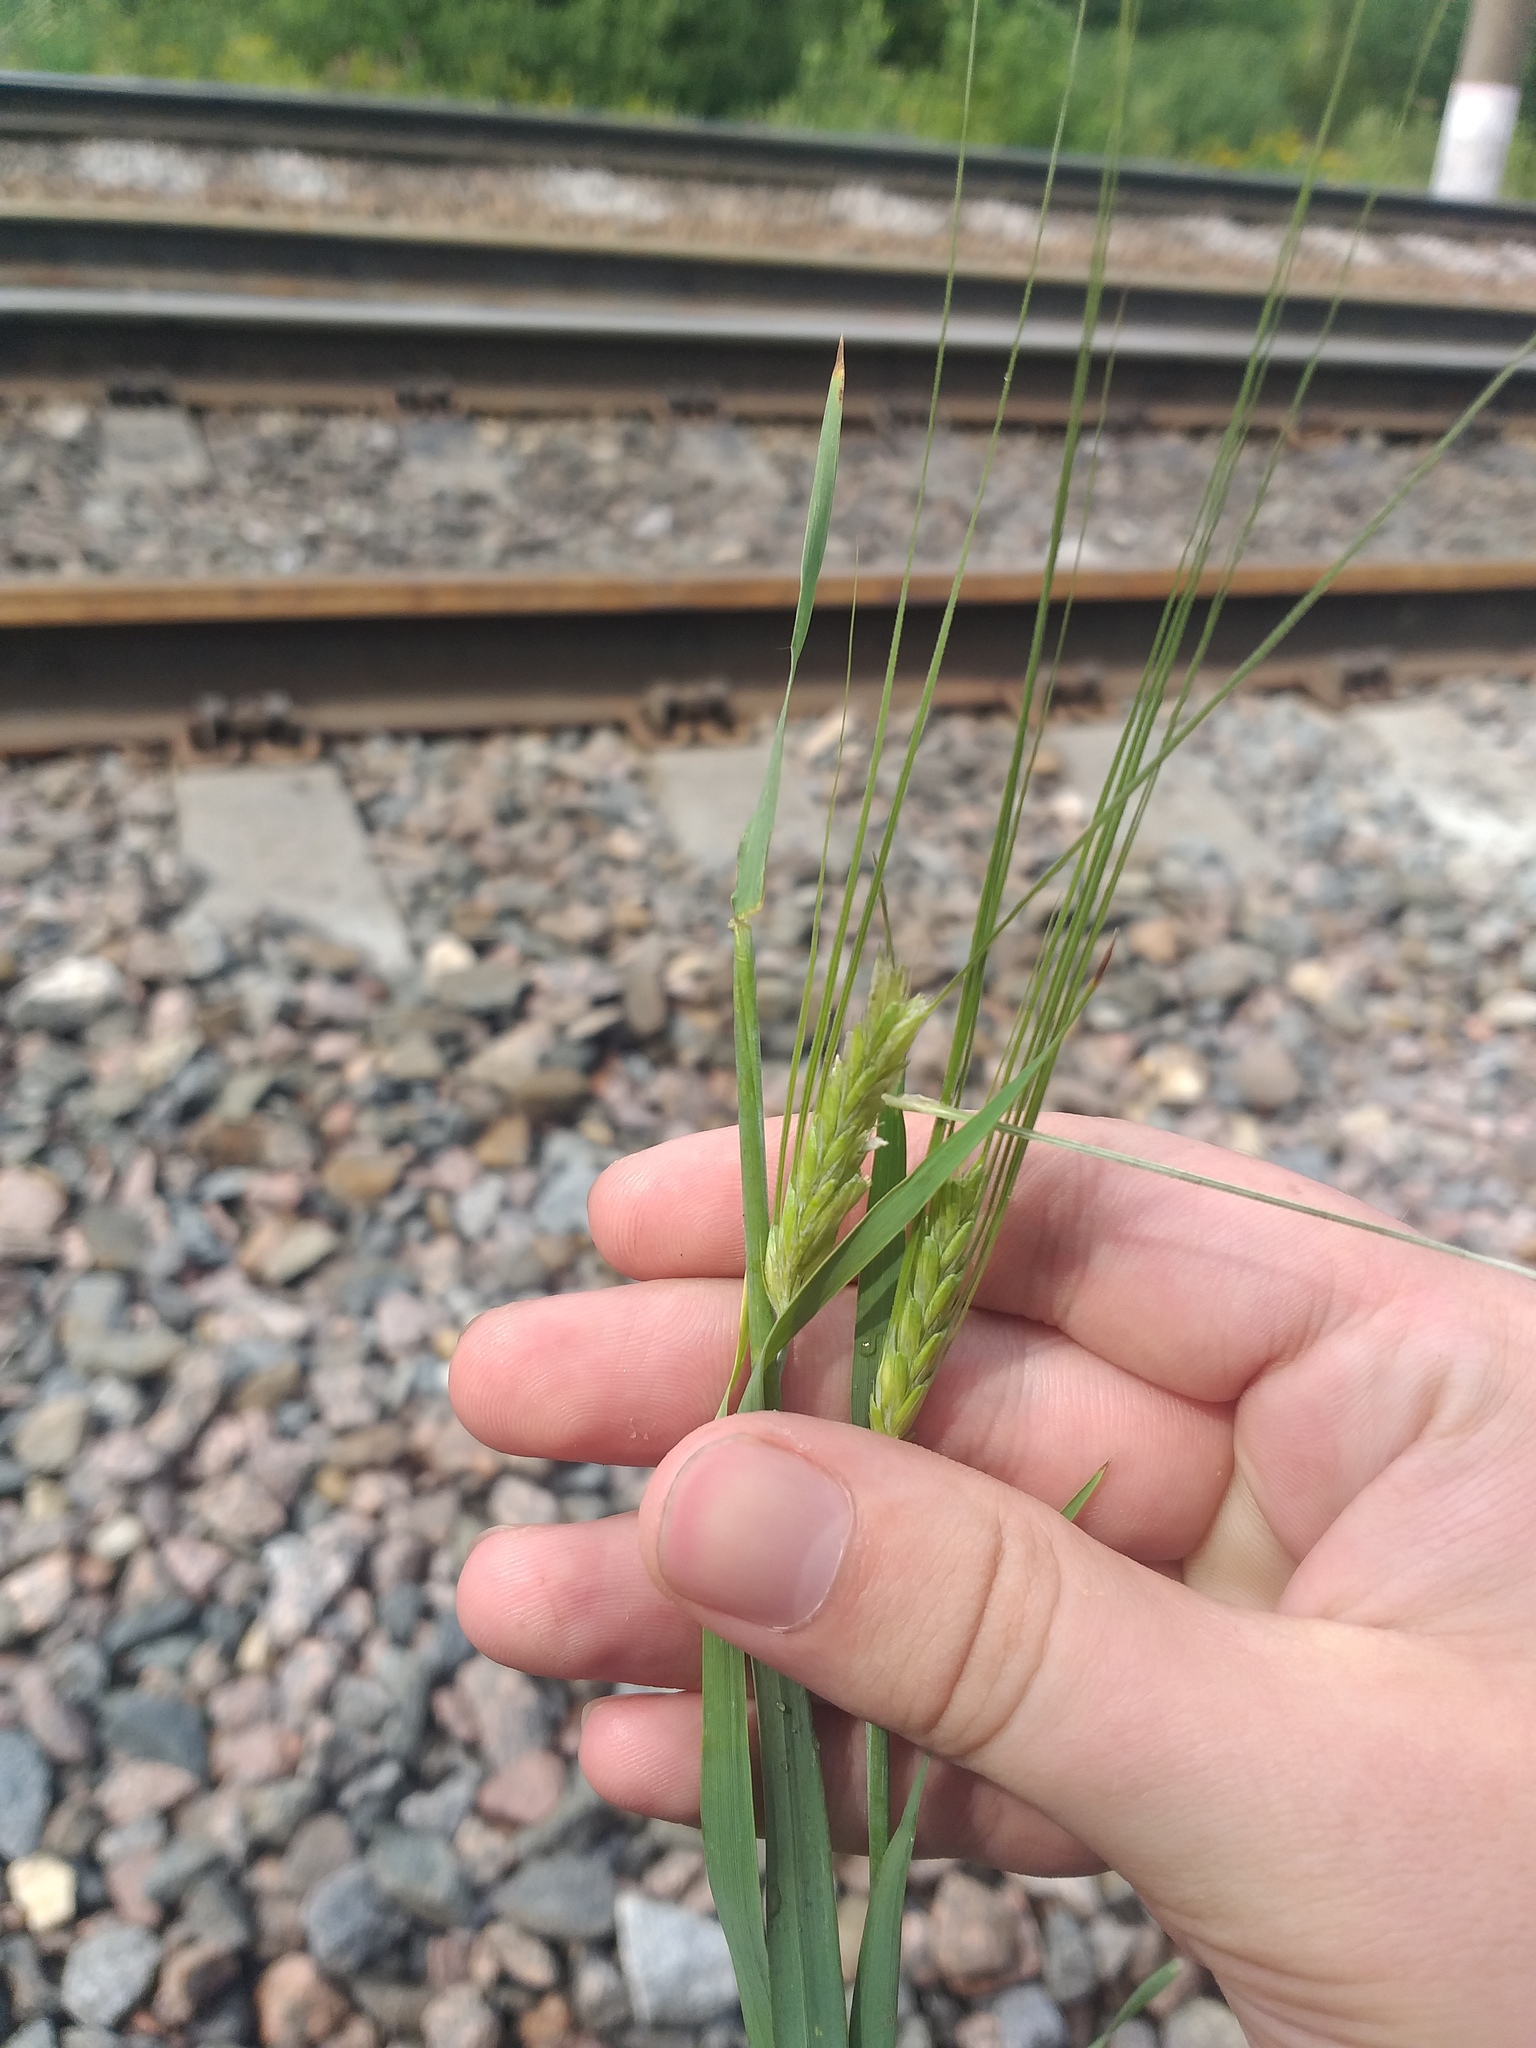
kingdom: Plantae
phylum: Tracheophyta
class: Liliopsida
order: Poales
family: Poaceae
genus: Hordeum
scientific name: Hordeum vulgare
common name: Common barley
